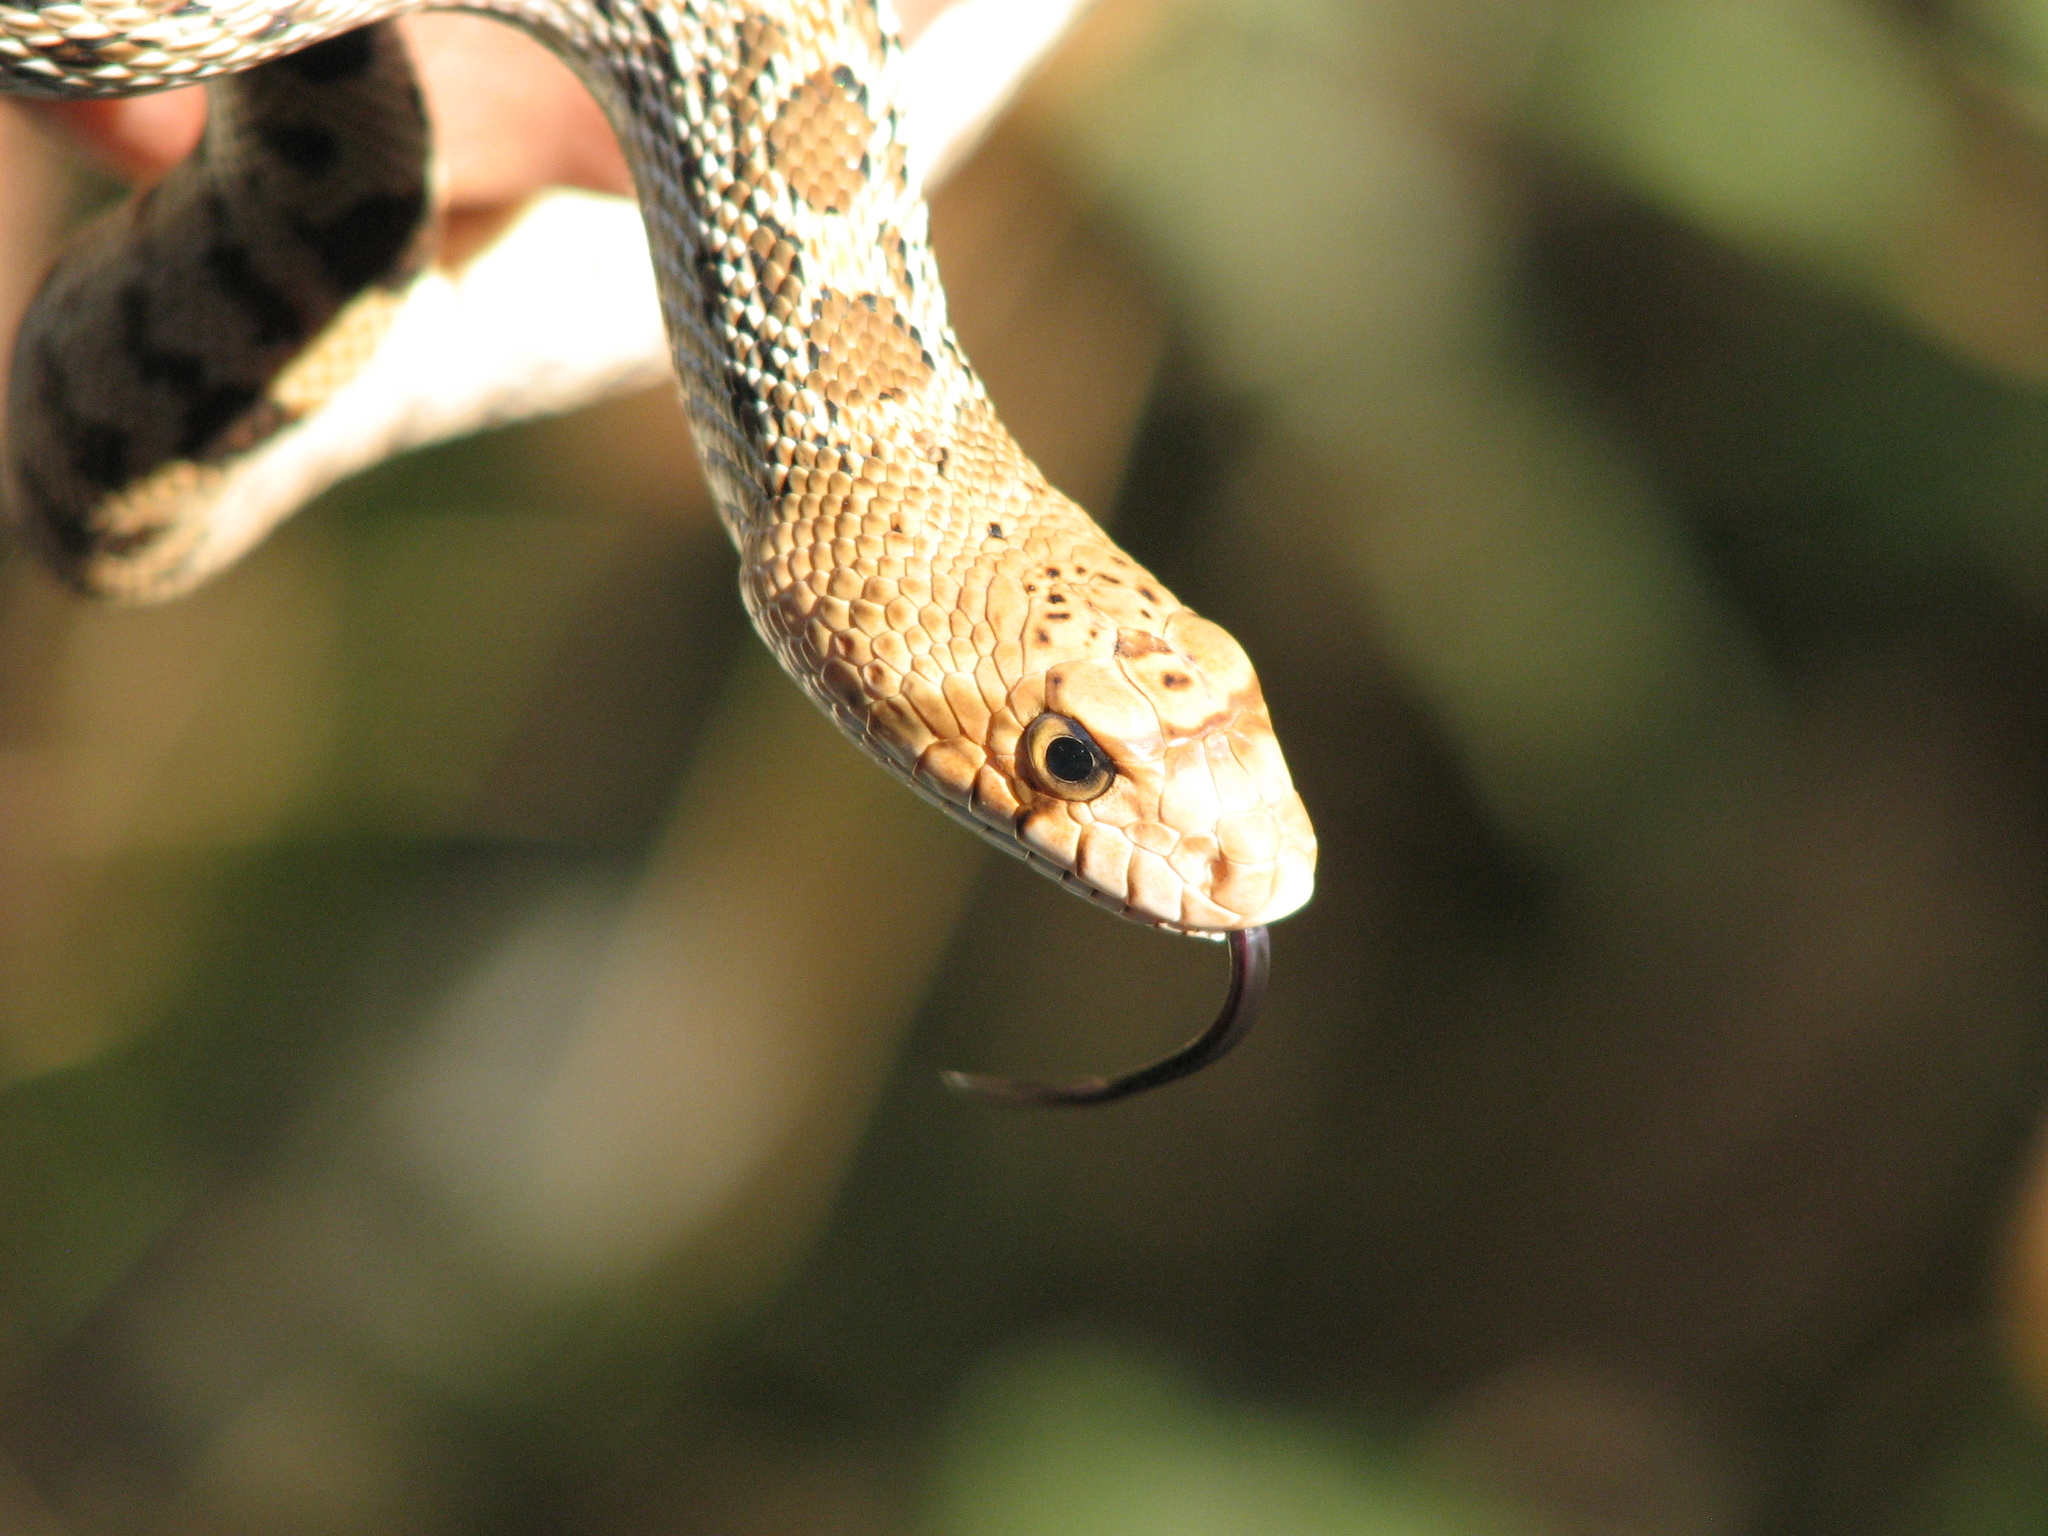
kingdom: Animalia
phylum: Chordata
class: Squamata
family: Colubridae
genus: Pituophis
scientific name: Pituophis catenifer
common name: Gopher snake
